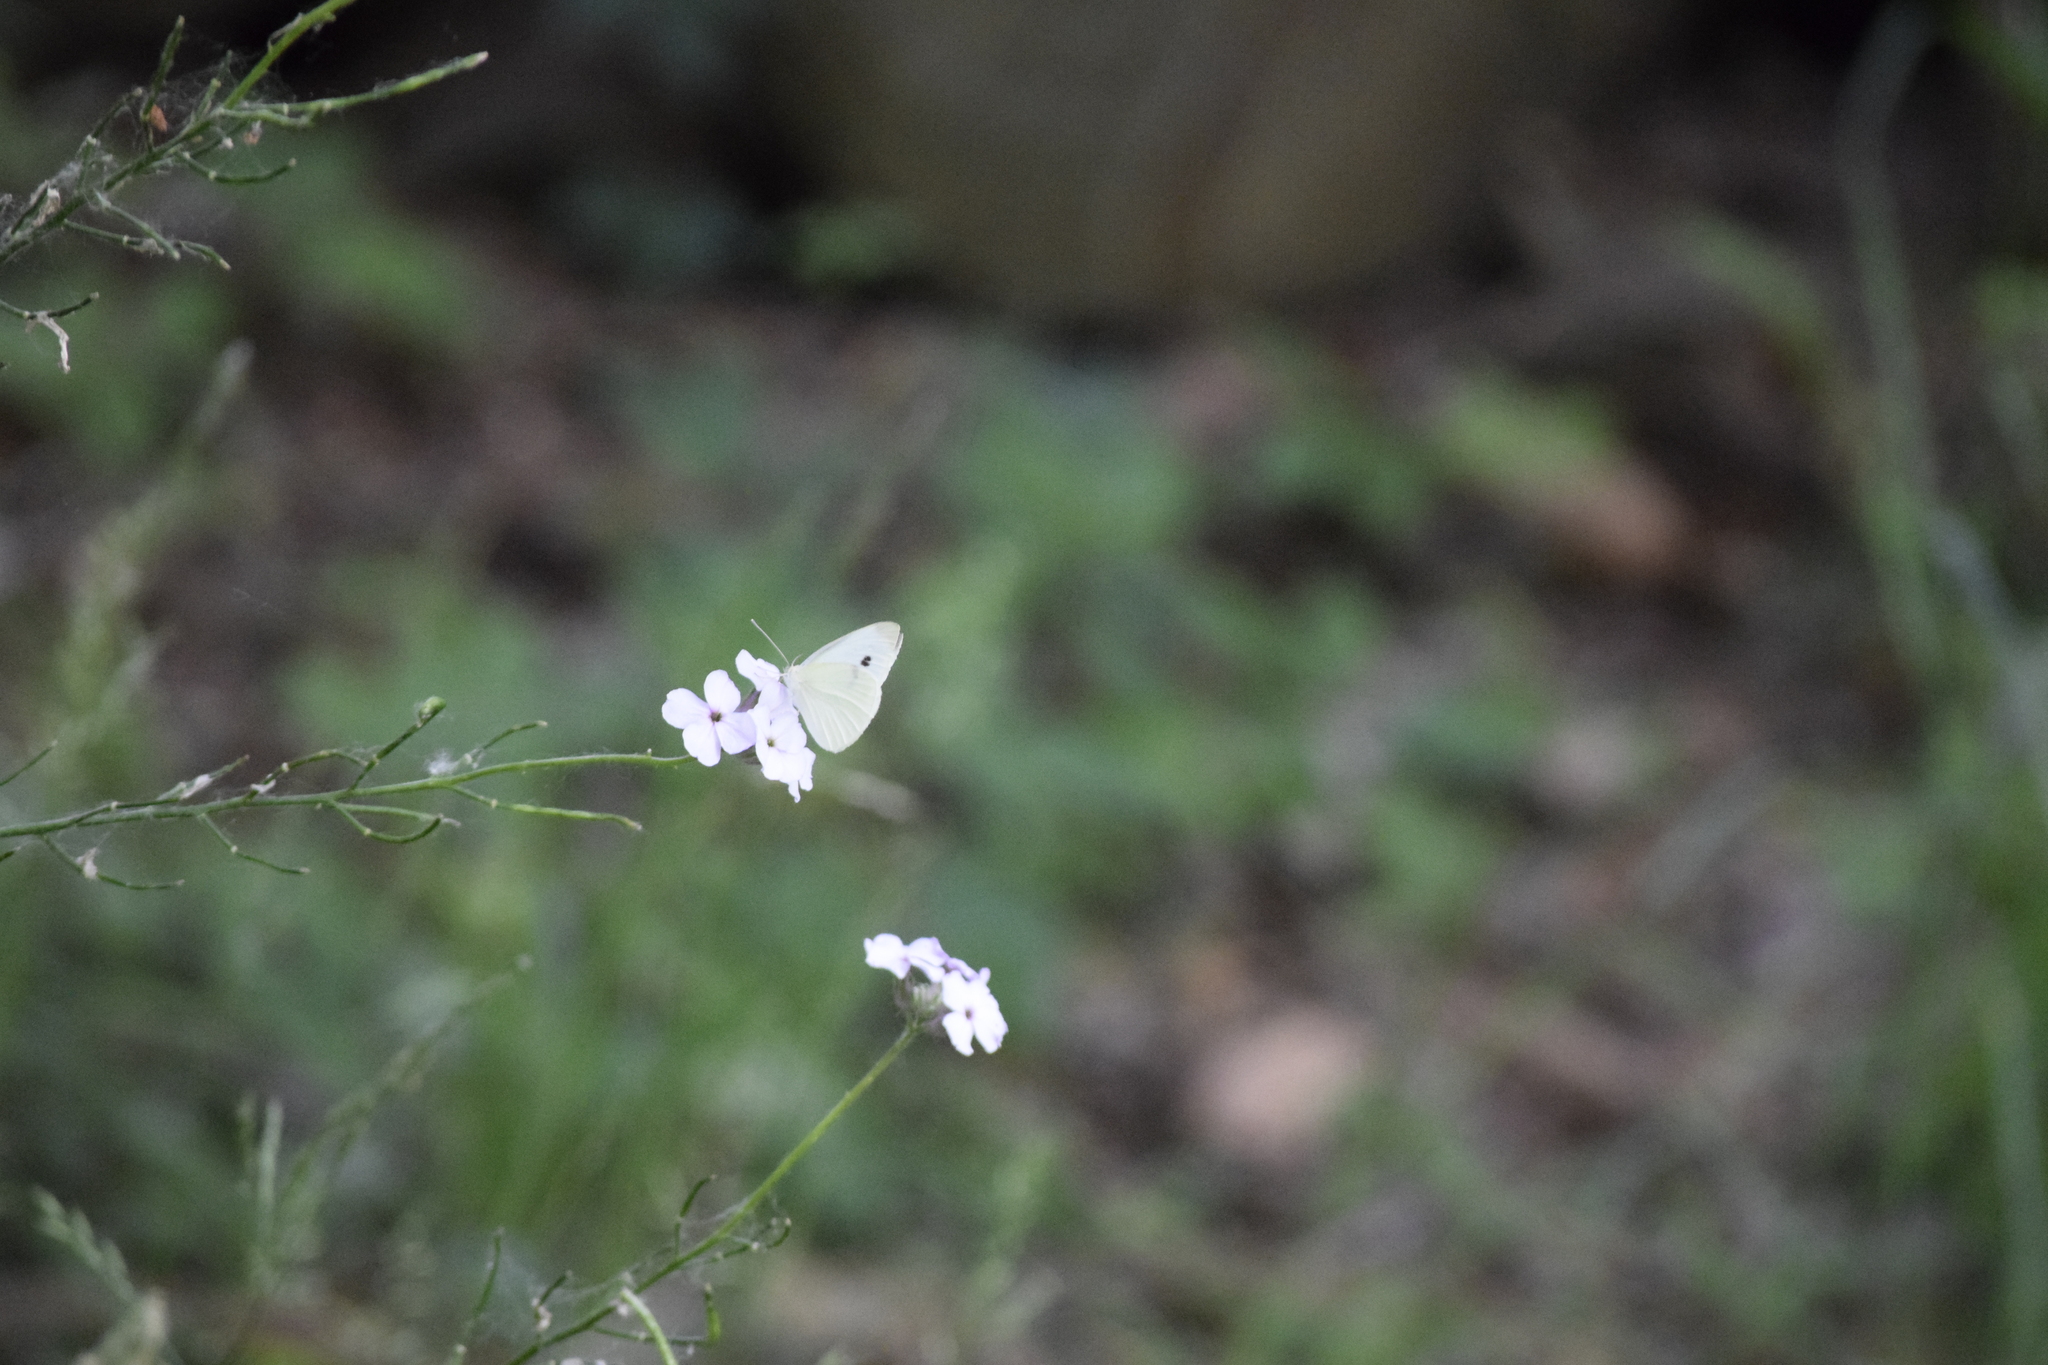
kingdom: Animalia
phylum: Arthropoda
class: Insecta
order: Lepidoptera
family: Pieridae
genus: Pieris
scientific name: Pieris rapae
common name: Small white
